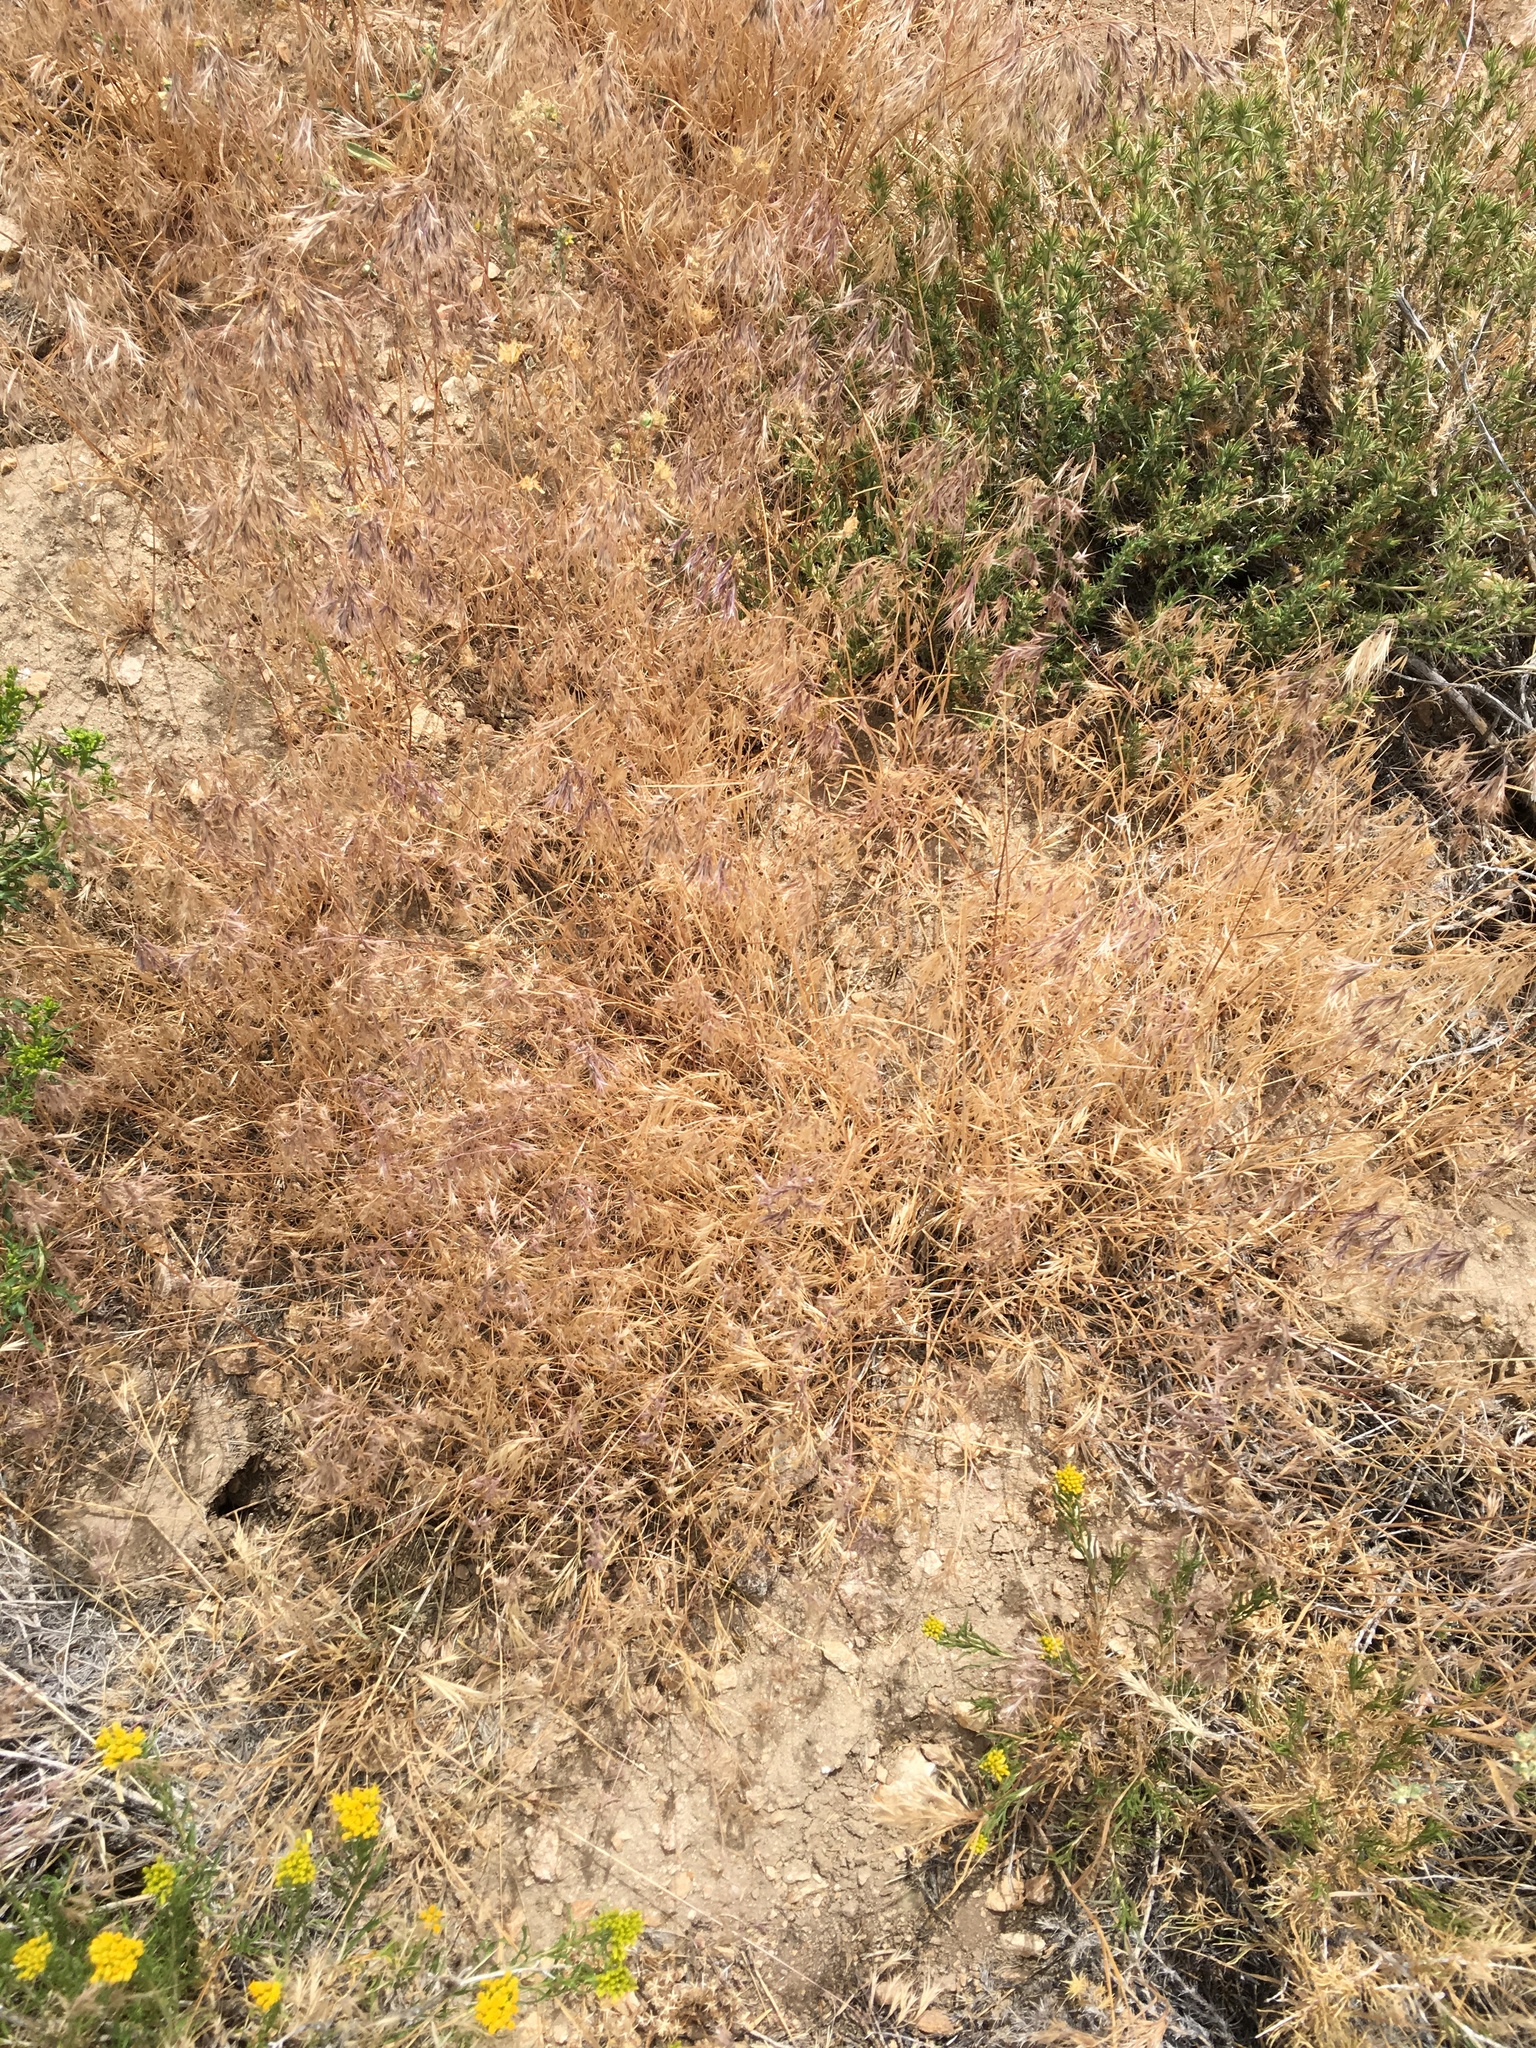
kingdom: Plantae
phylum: Tracheophyta
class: Liliopsida
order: Poales
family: Poaceae
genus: Bromus
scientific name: Bromus tectorum
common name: Cheatgrass
